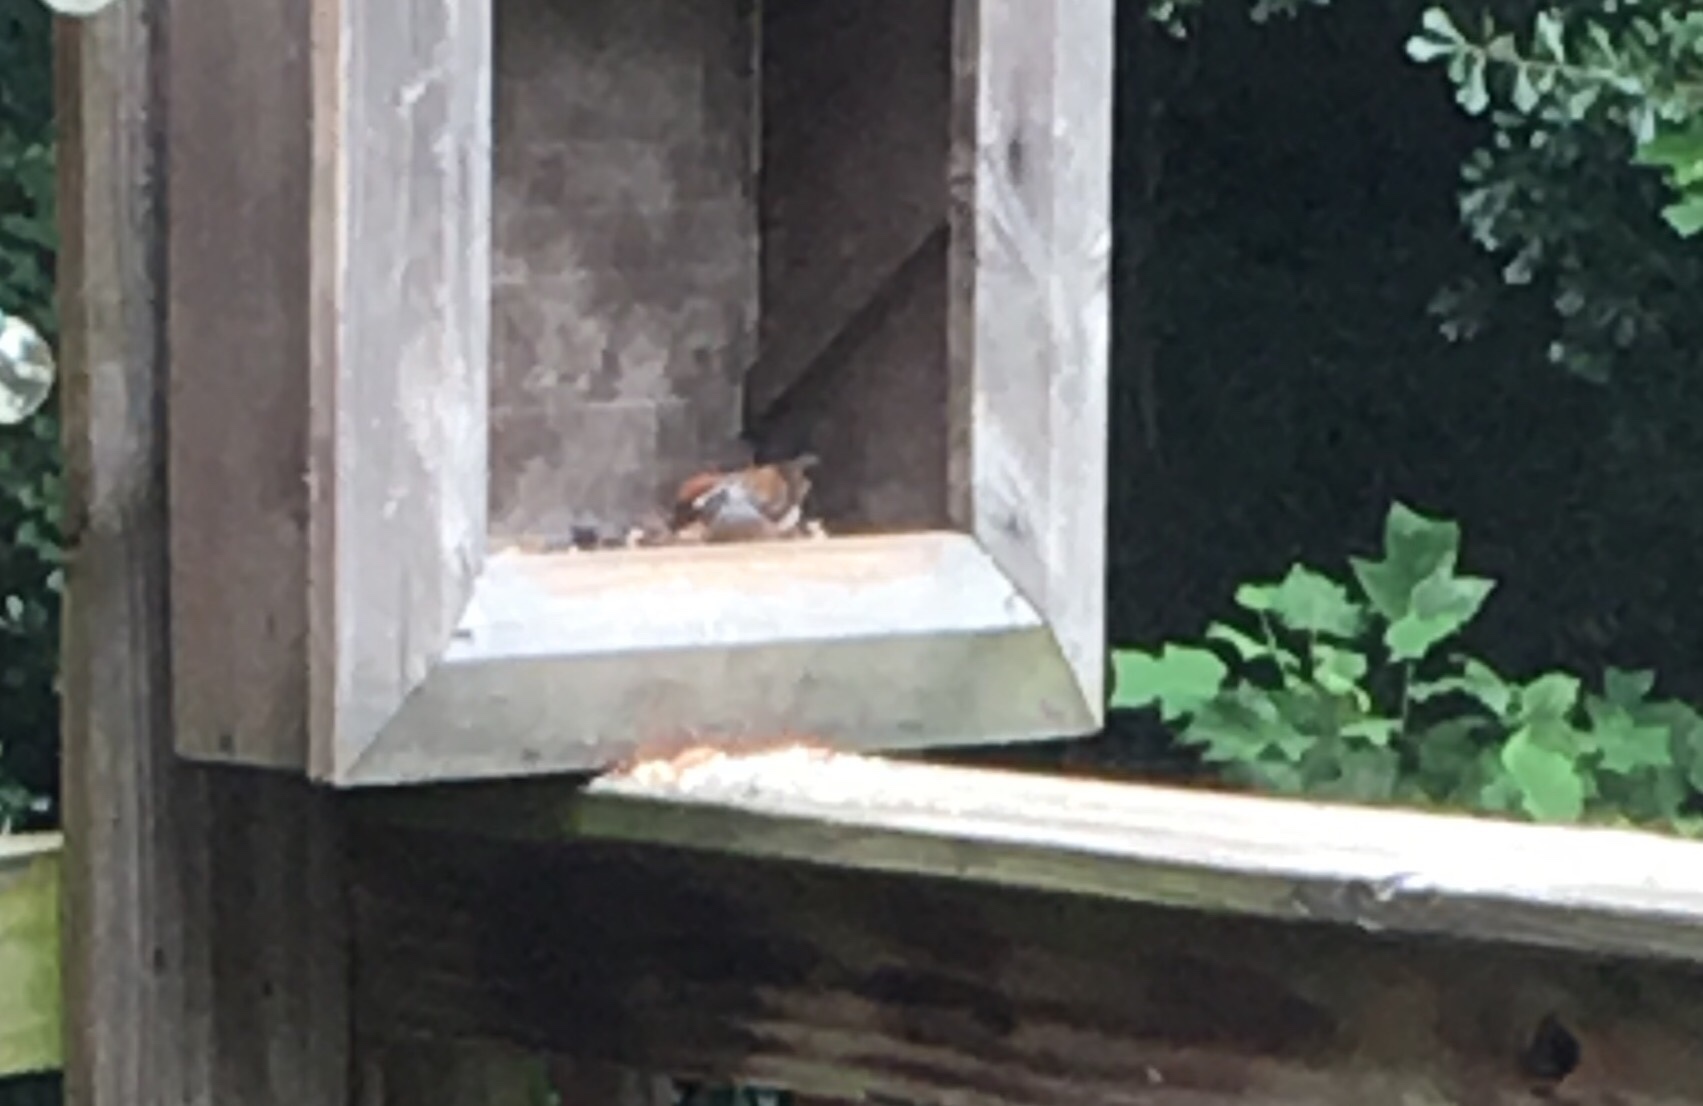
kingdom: Animalia
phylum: Chordata
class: Aves
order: Passeriformes
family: Passerellidae
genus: Spizella
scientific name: Spizella passerina
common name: Chipping sparrow
